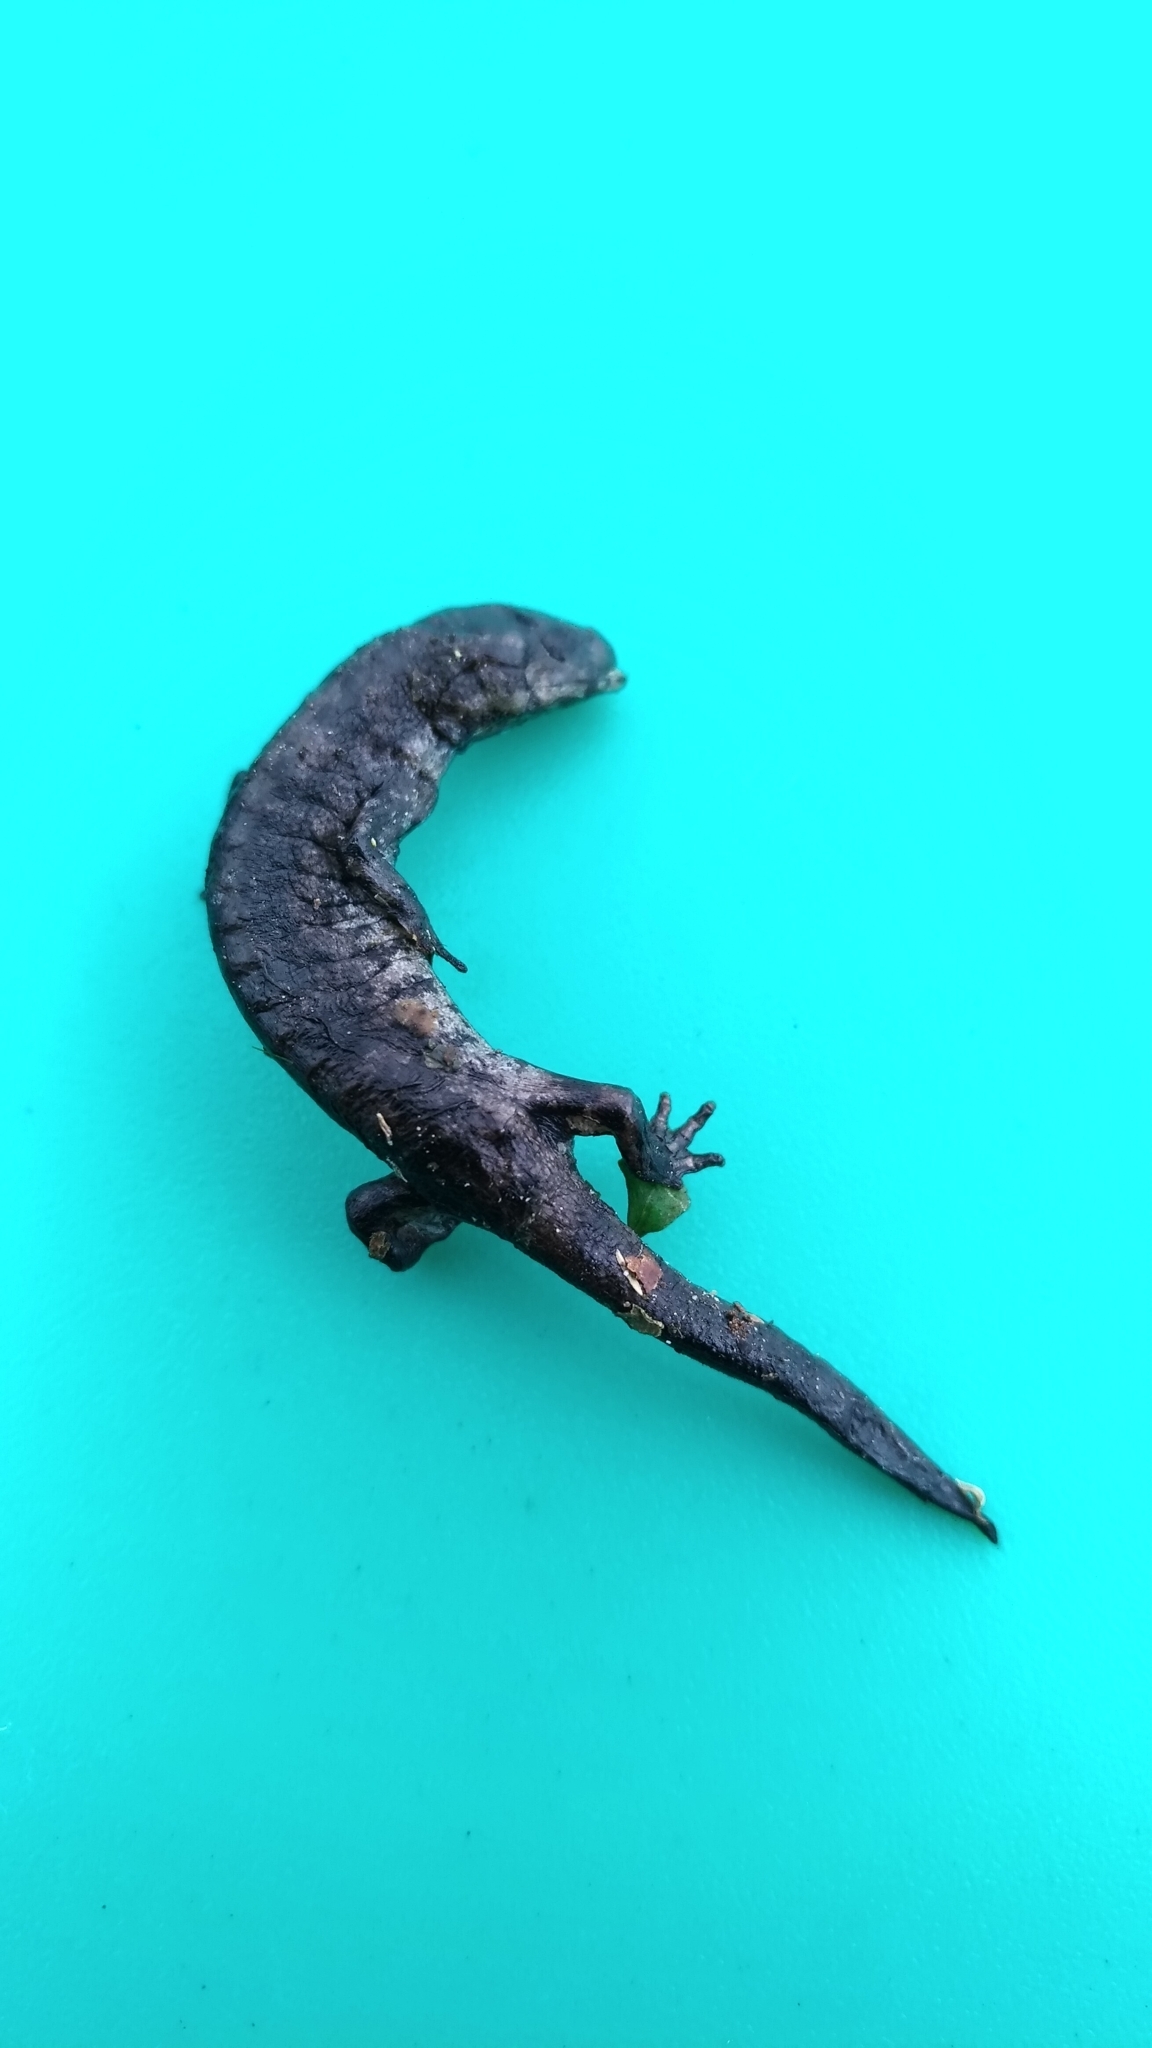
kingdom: Animalia
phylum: Chordata
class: Amphibia
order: Caudata
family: Hynobiidae
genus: Hynobius
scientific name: Hynobius sonani
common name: Taichu salamander
